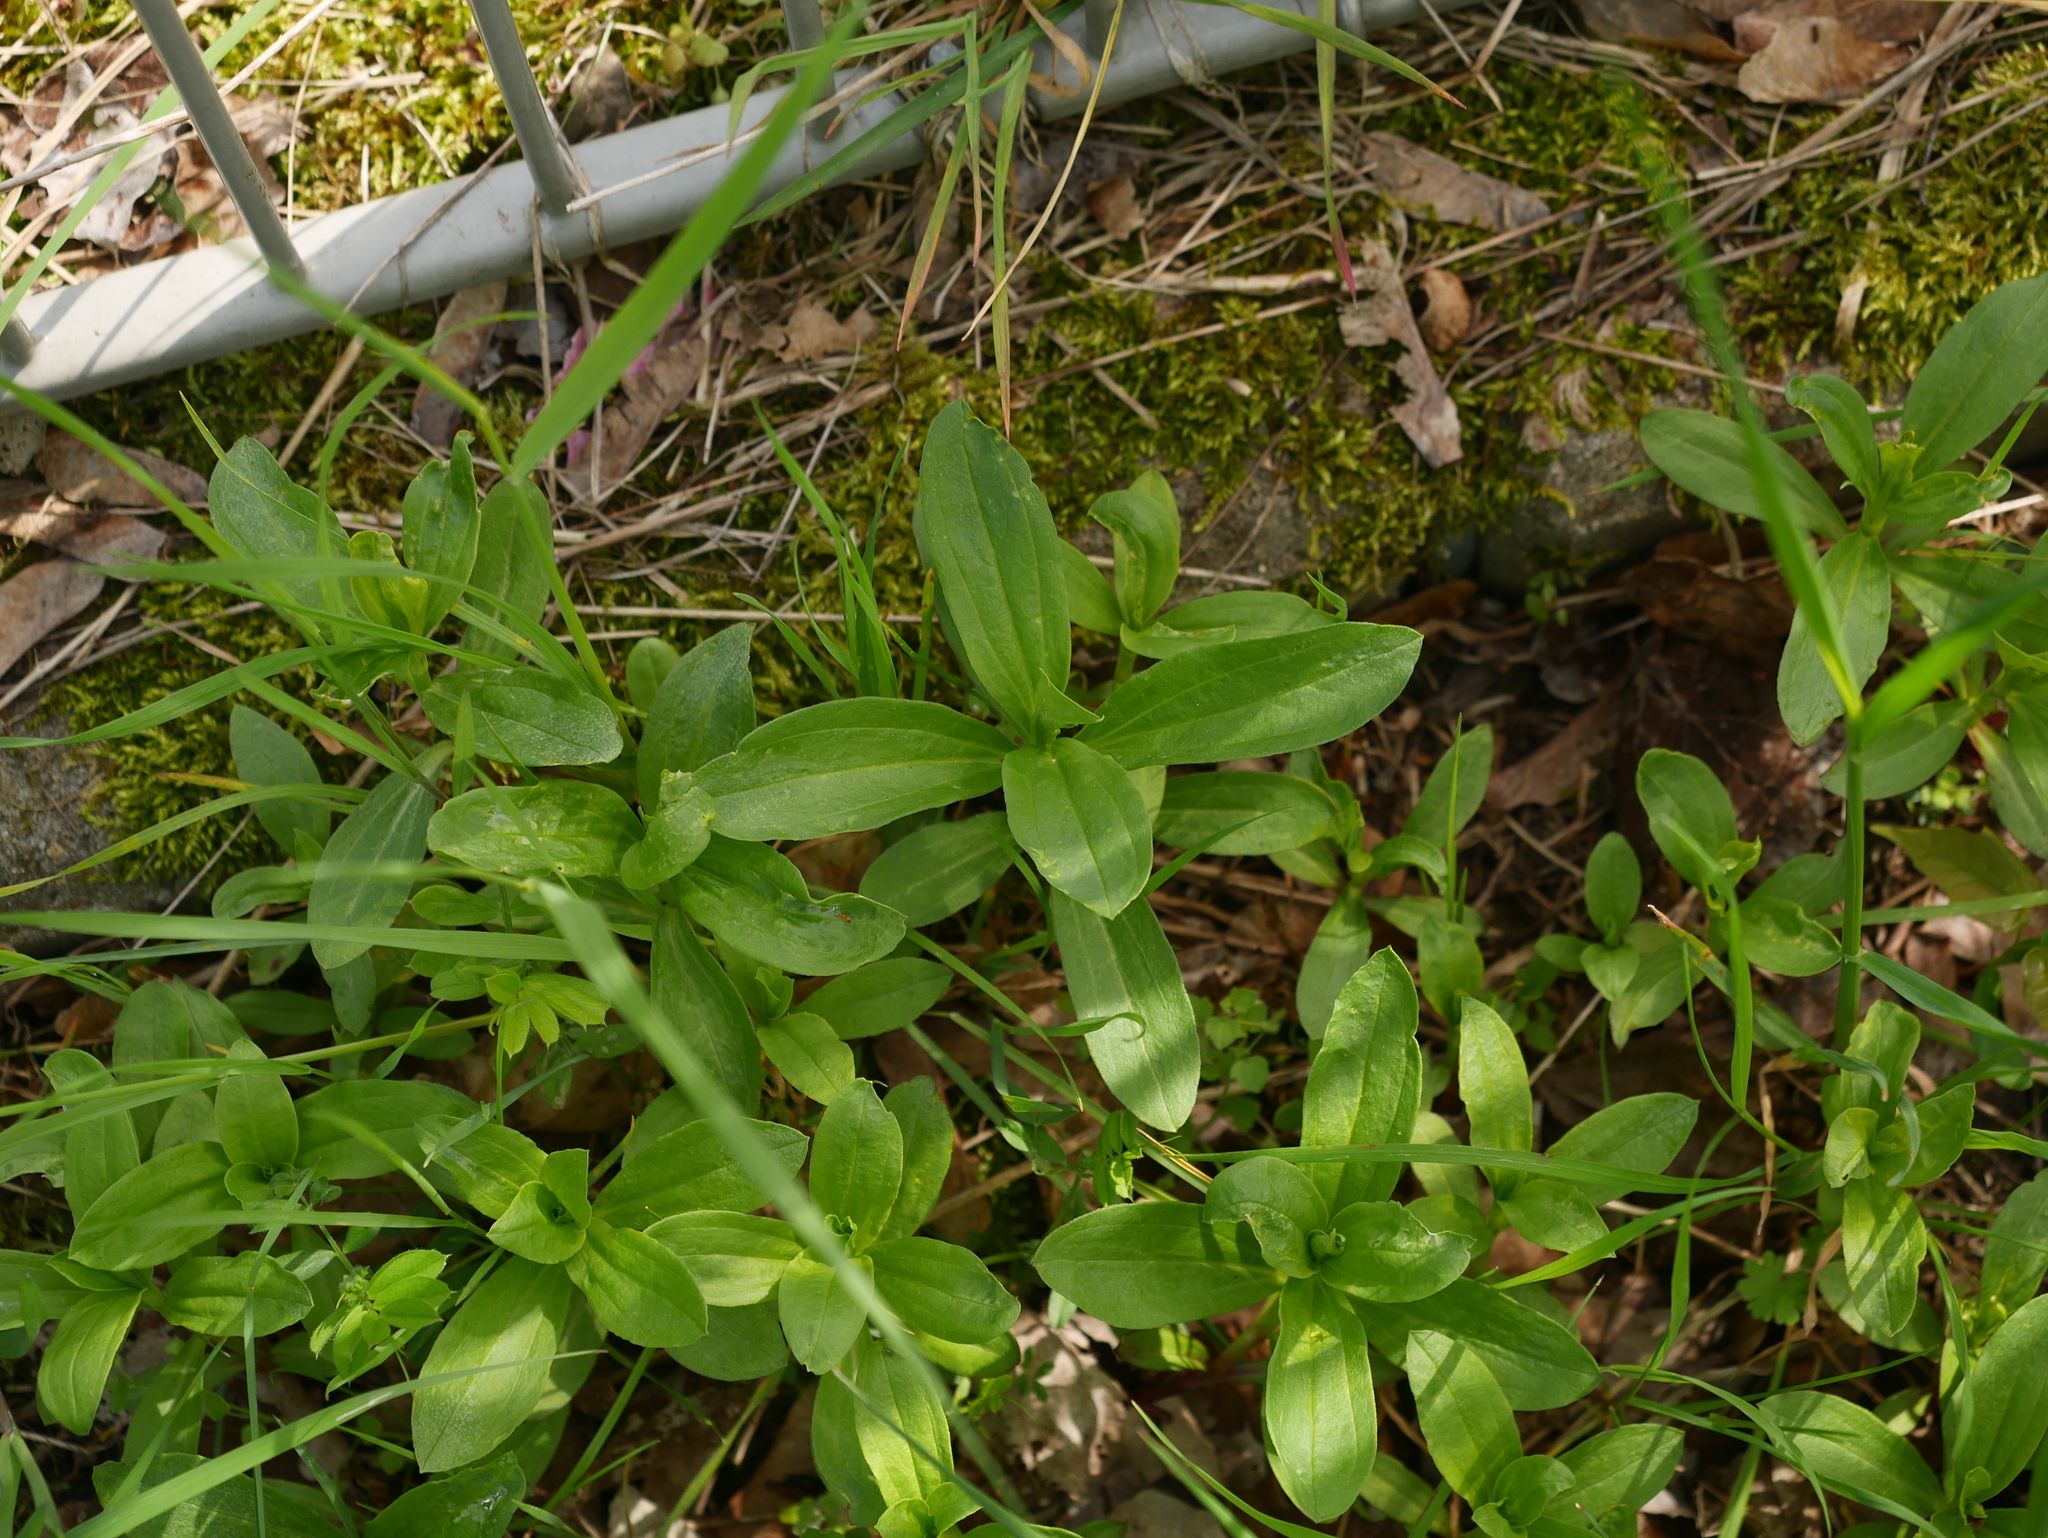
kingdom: Plantae
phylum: Tracheophyta
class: Magnoliopsida
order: Caryophyllales
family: Caryophyllaceae
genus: Saponaria
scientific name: Saponaria officinalis
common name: Soapwort
